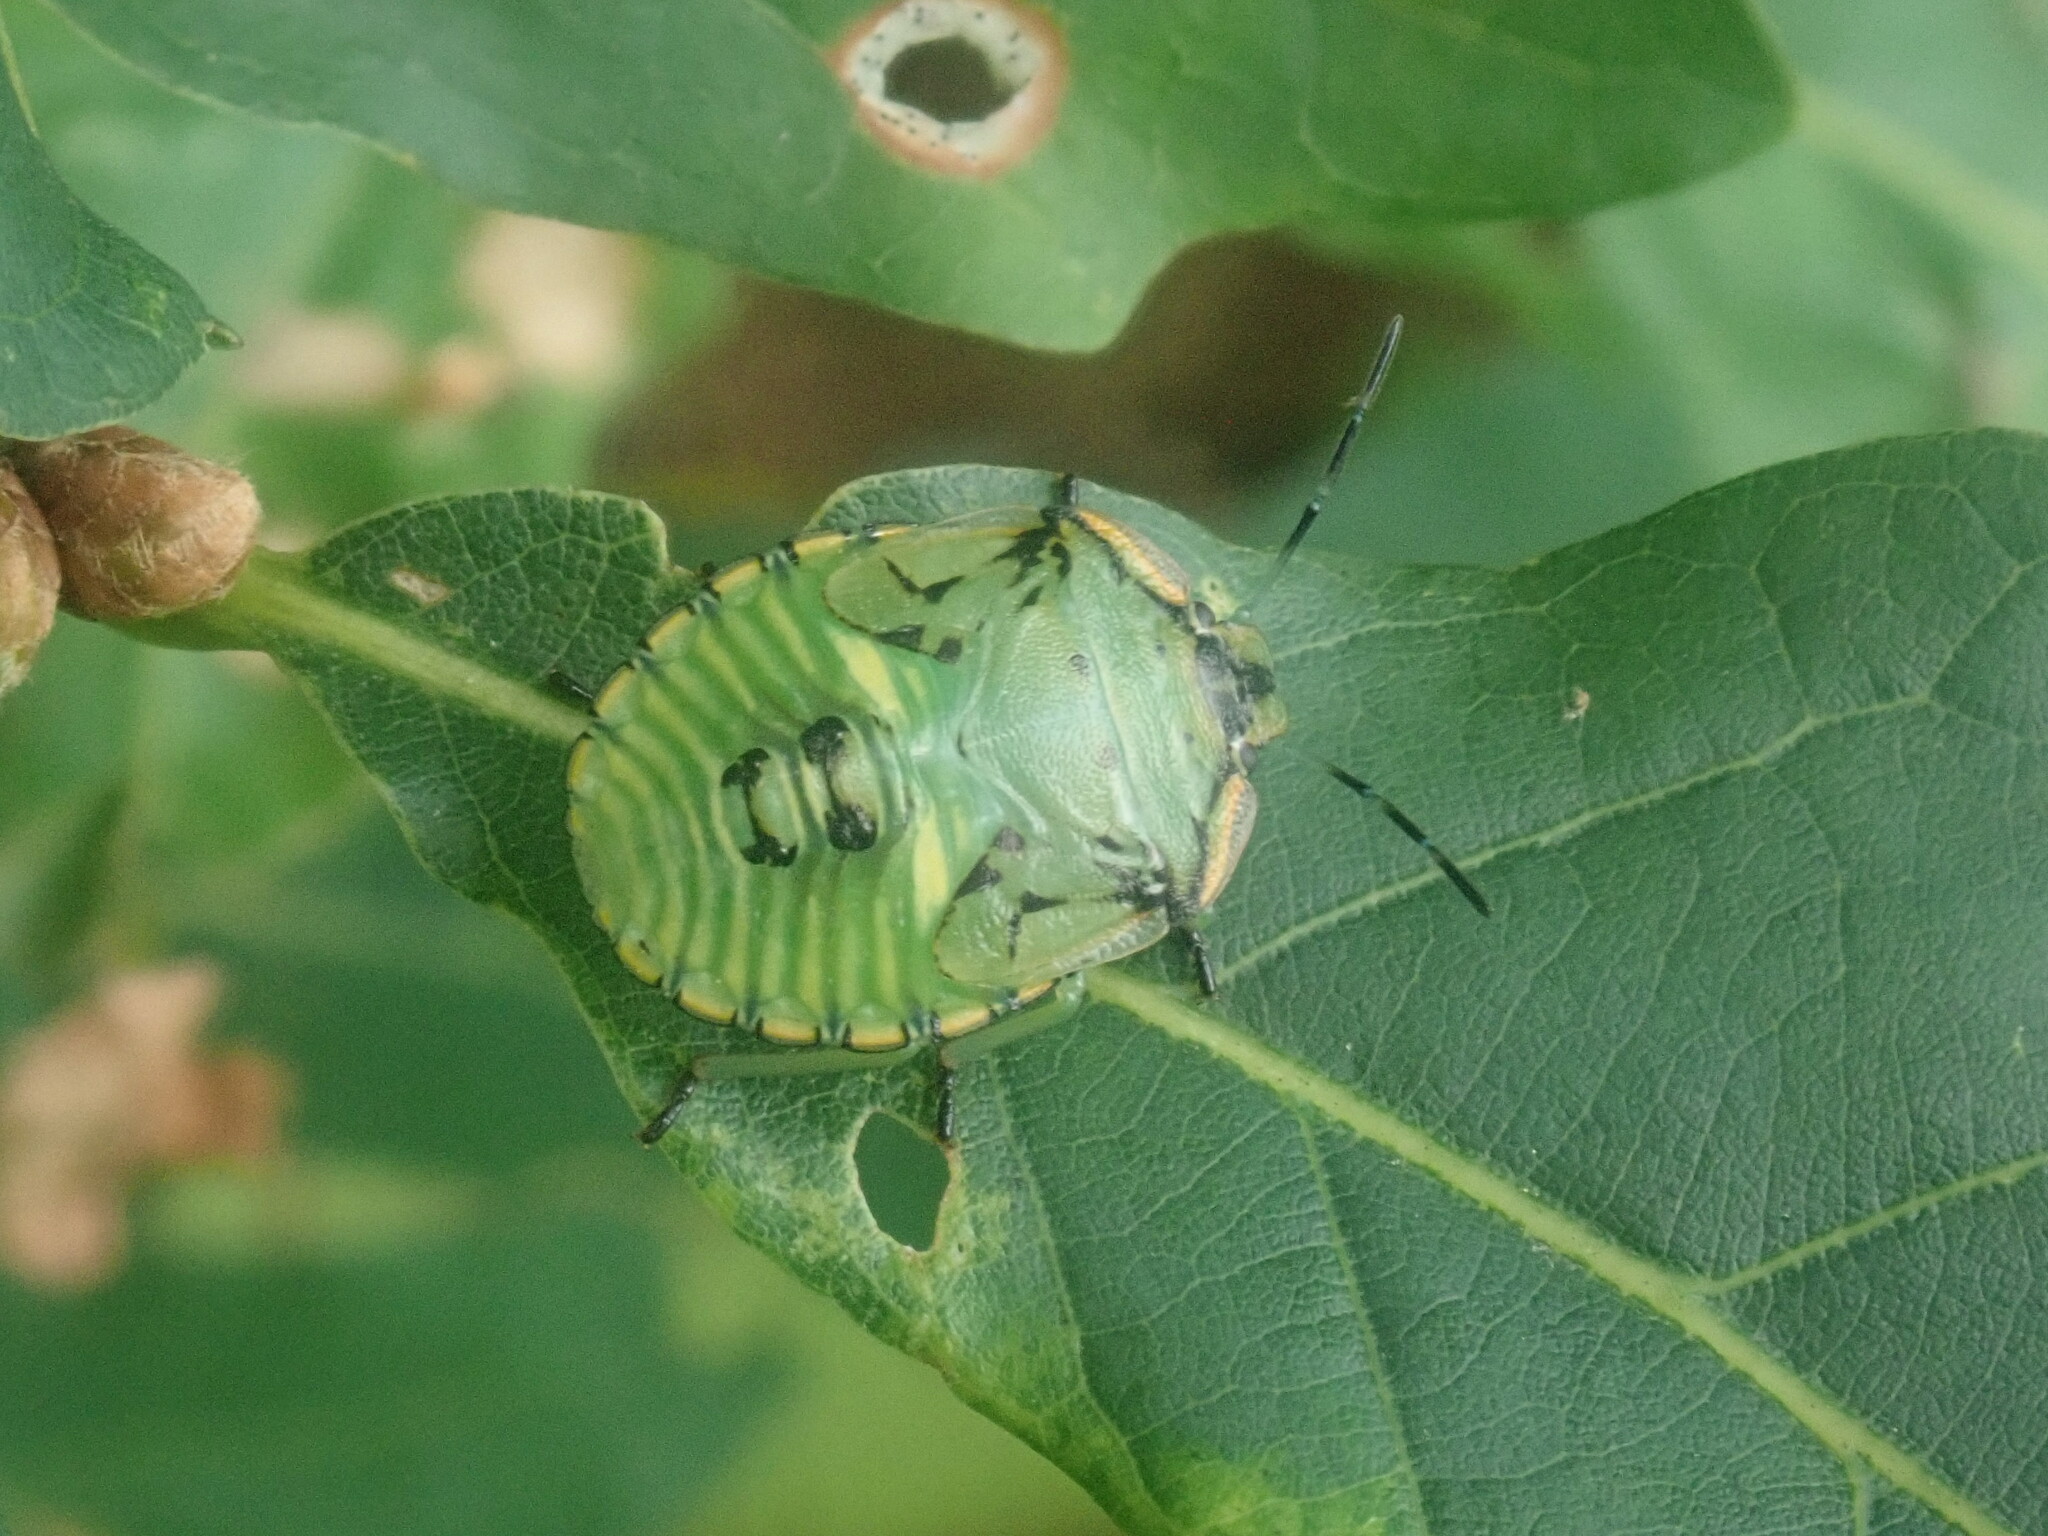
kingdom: Animalia
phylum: Arthropoda
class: Insecta
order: Hemiptera
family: Pentatomidae
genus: Chinavia
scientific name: Chinavia hilaris
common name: Green stink bug
